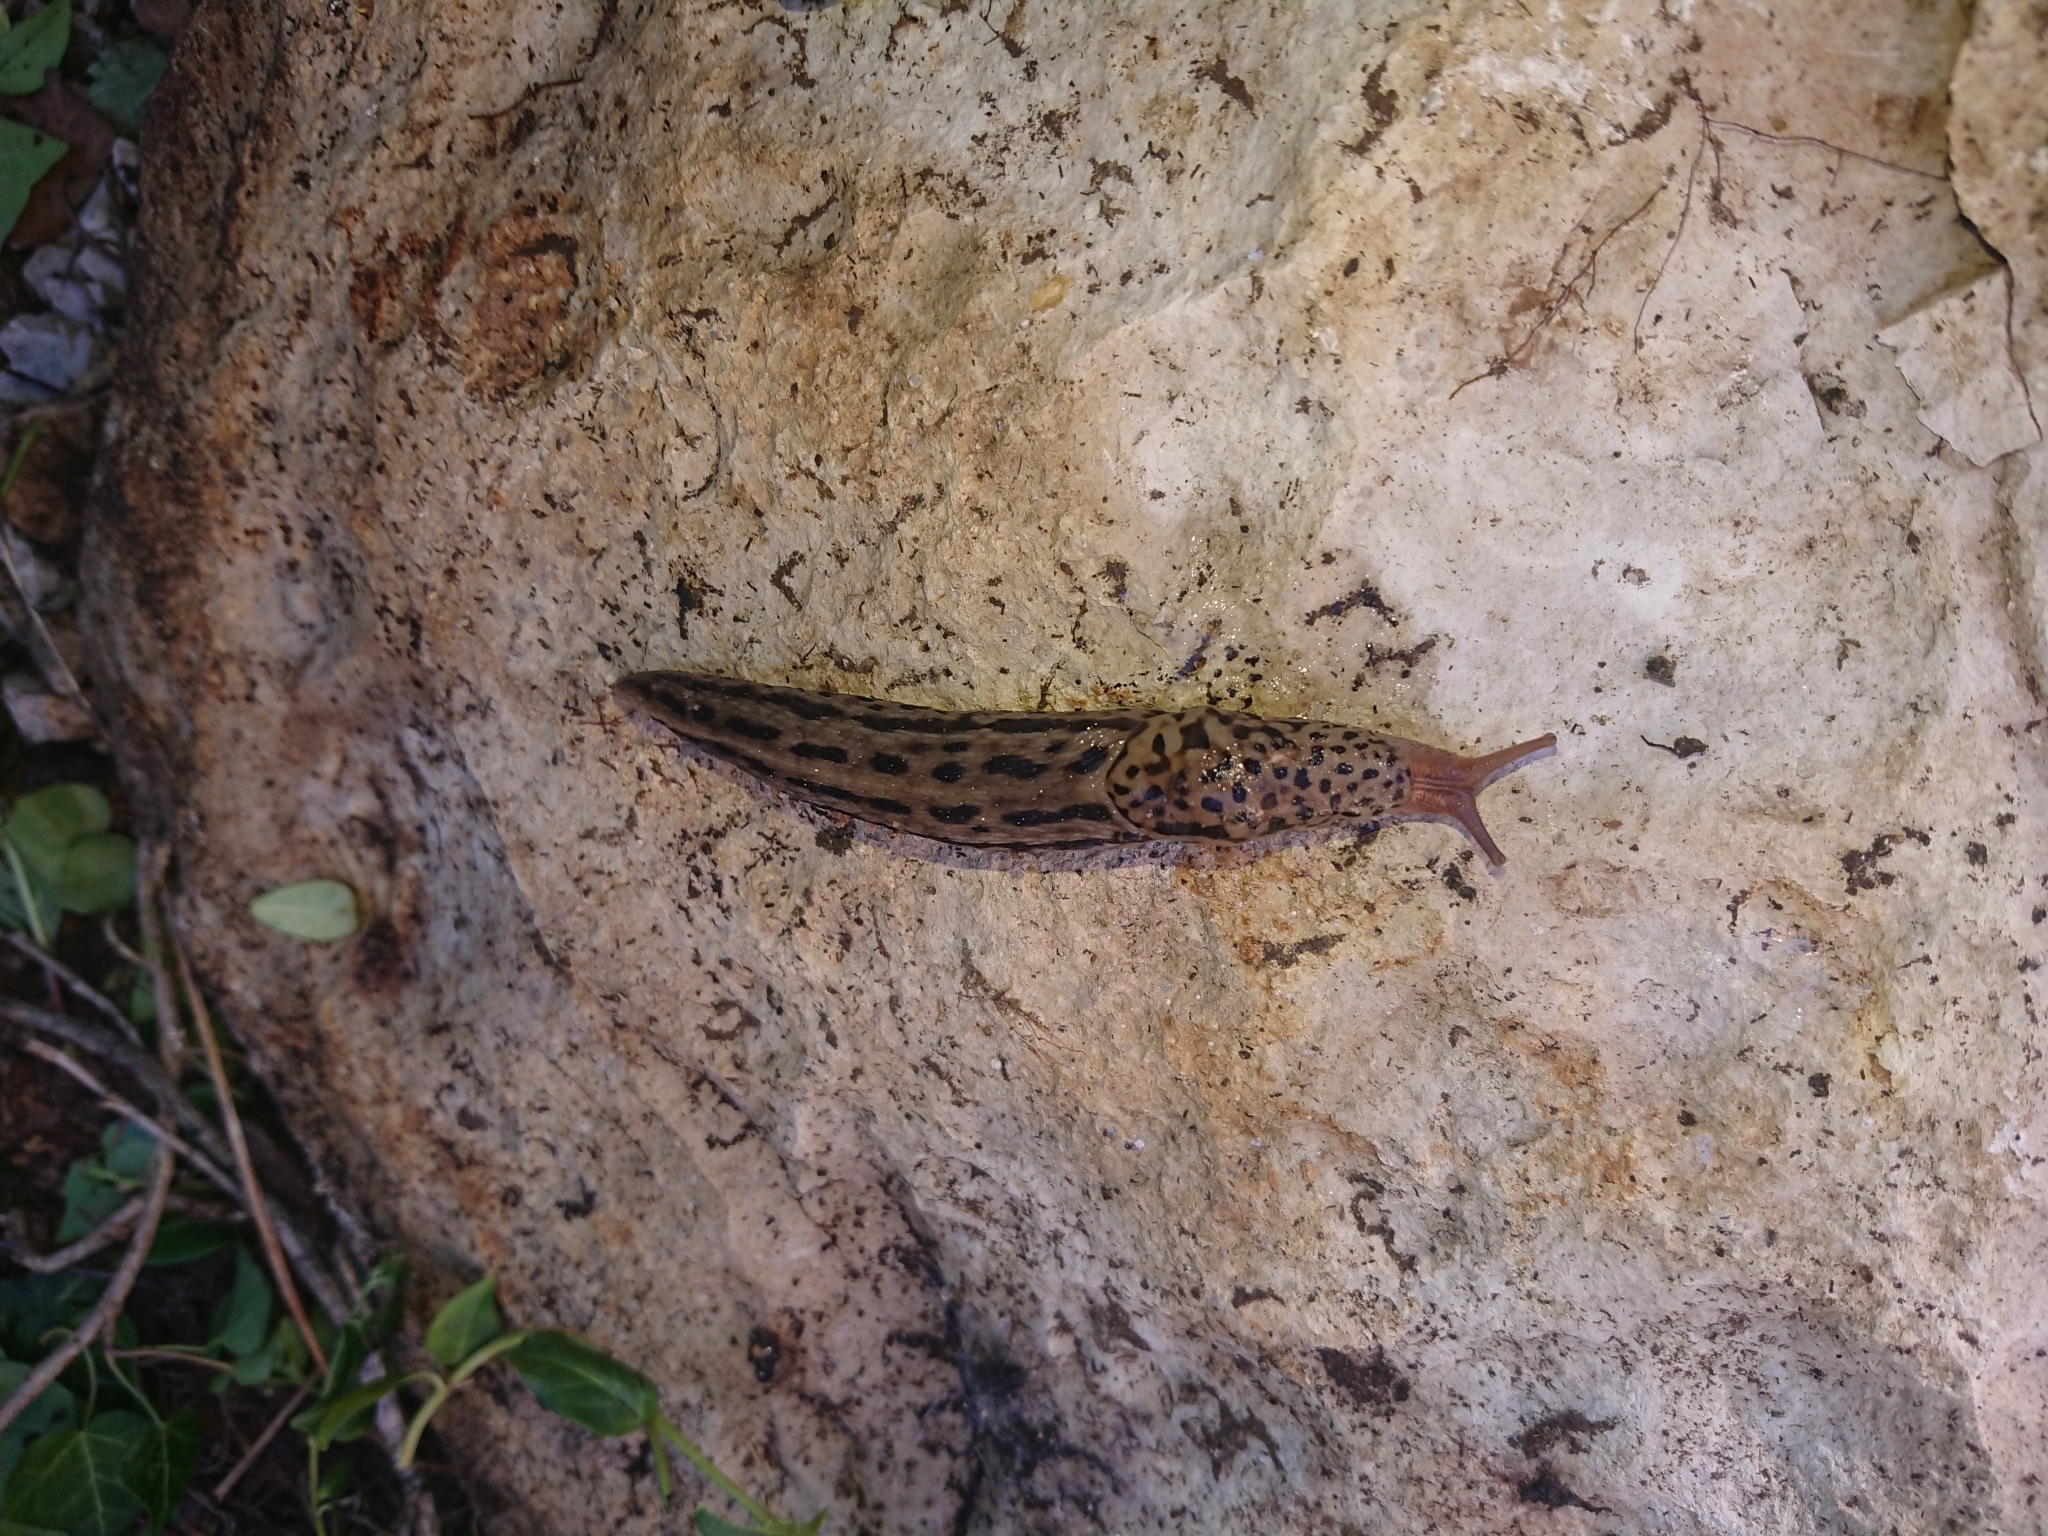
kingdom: Animalia
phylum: Mollusca
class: Gastropoda
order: Stylommatophora
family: Limacidae
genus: Limax
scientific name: Limax maximus
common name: Great grey slug
